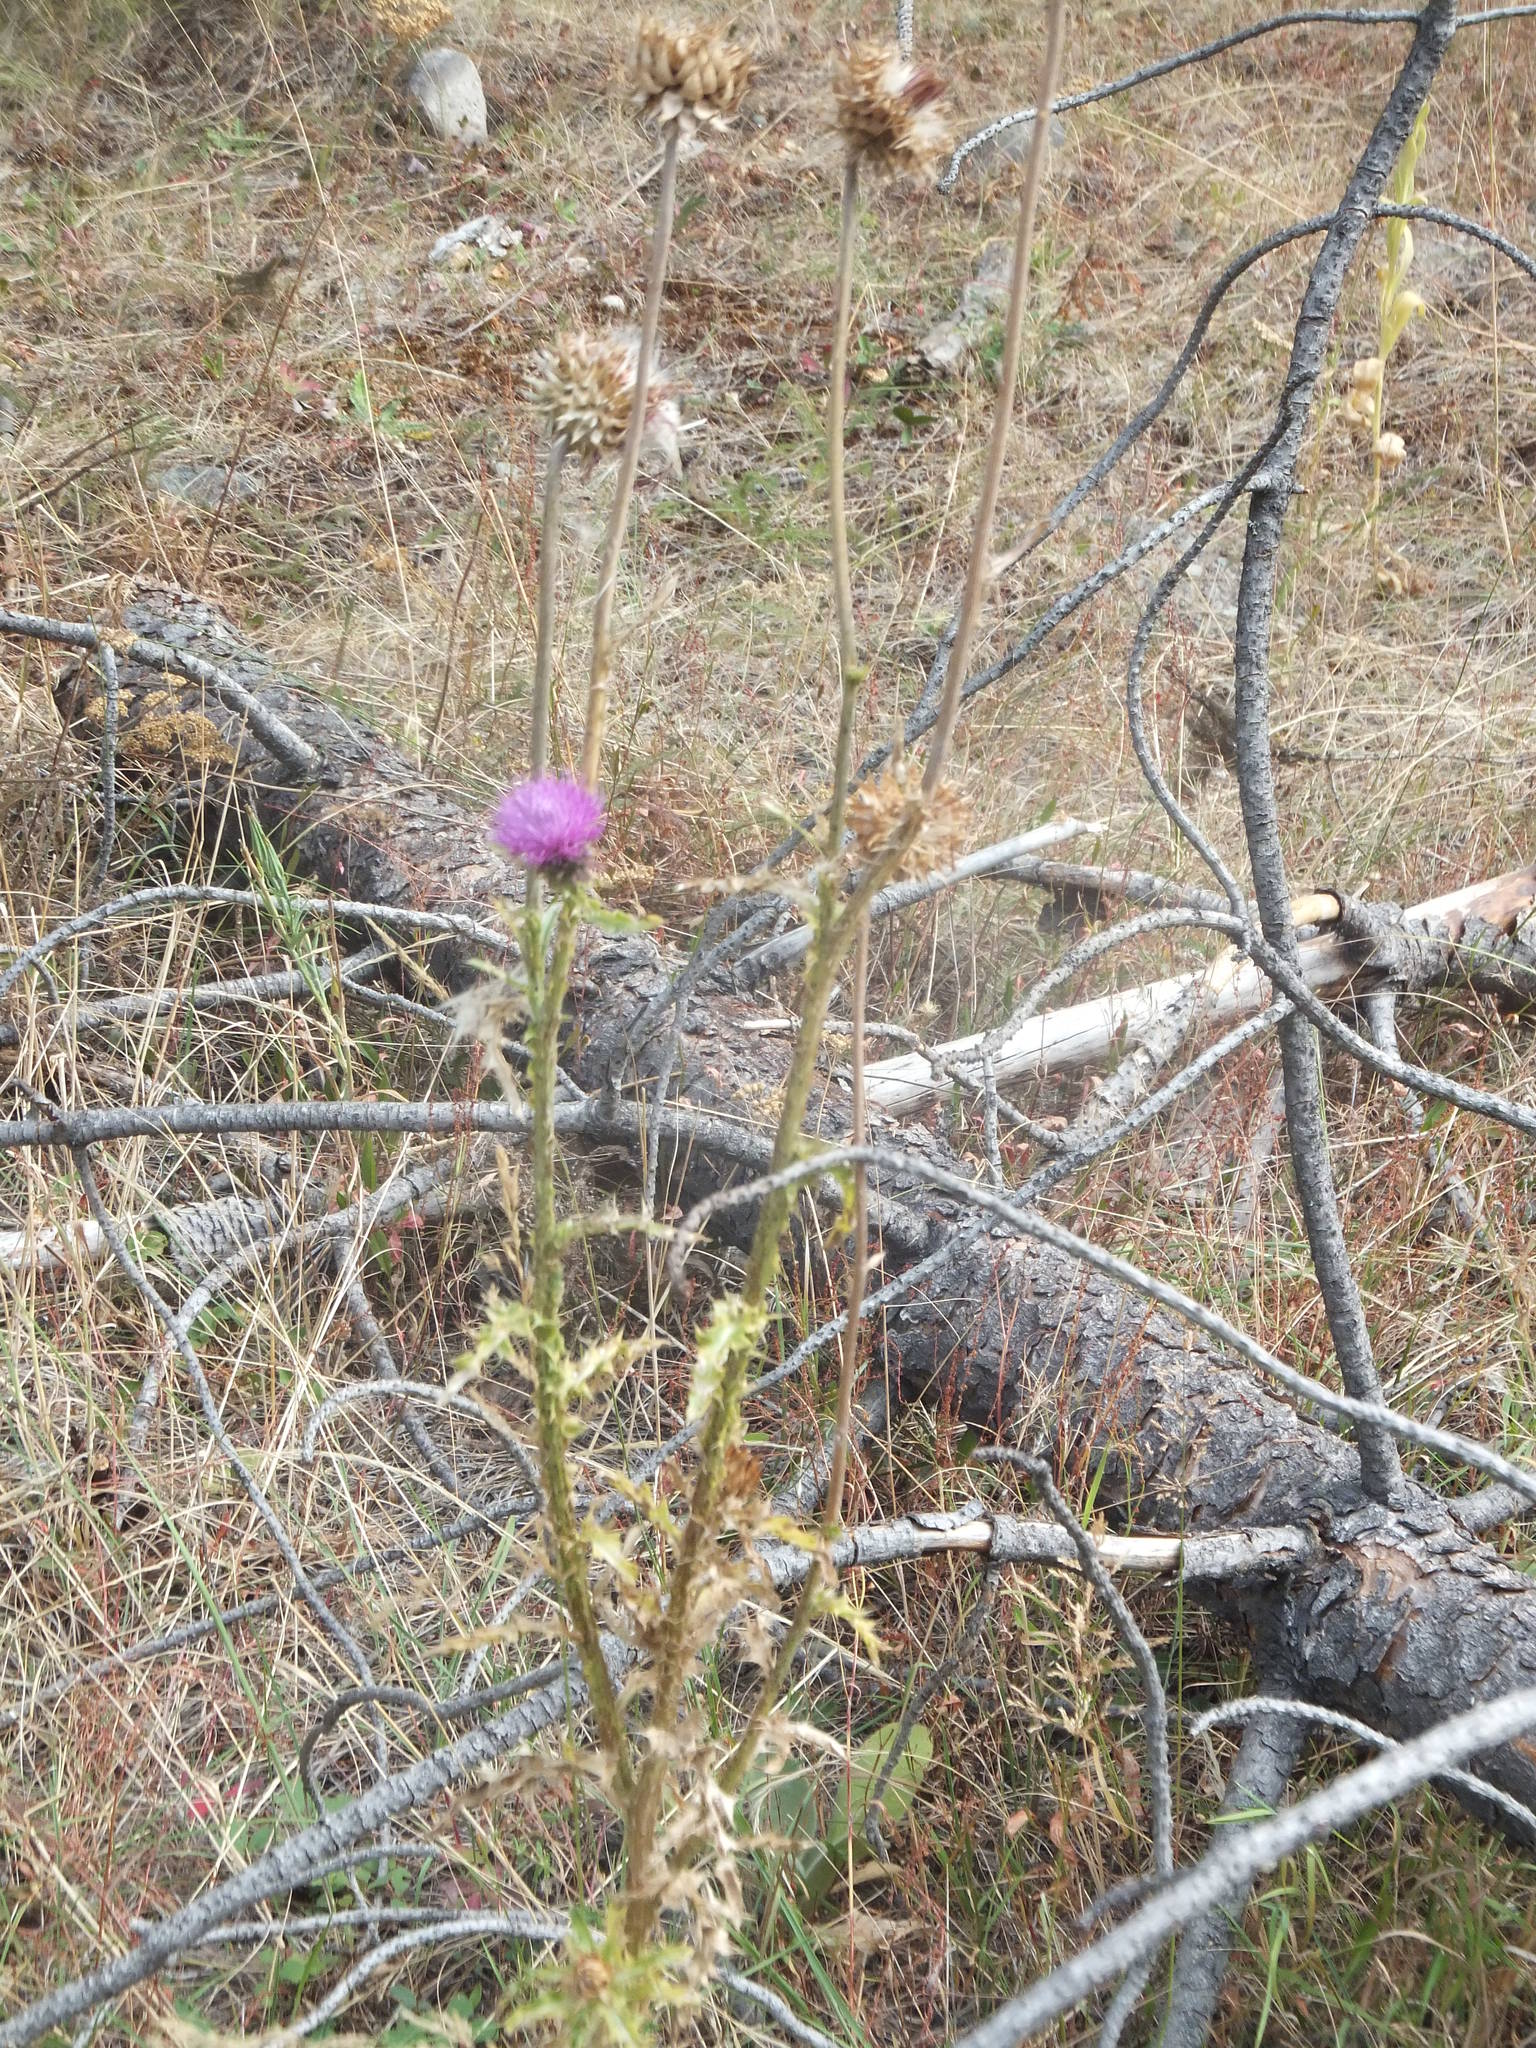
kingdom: Plantae
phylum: Tracheophyta
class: Magnoliopsida
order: Asterales
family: Asteraceae
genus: Carduus
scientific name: Carduus nutans
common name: Musk thistle
